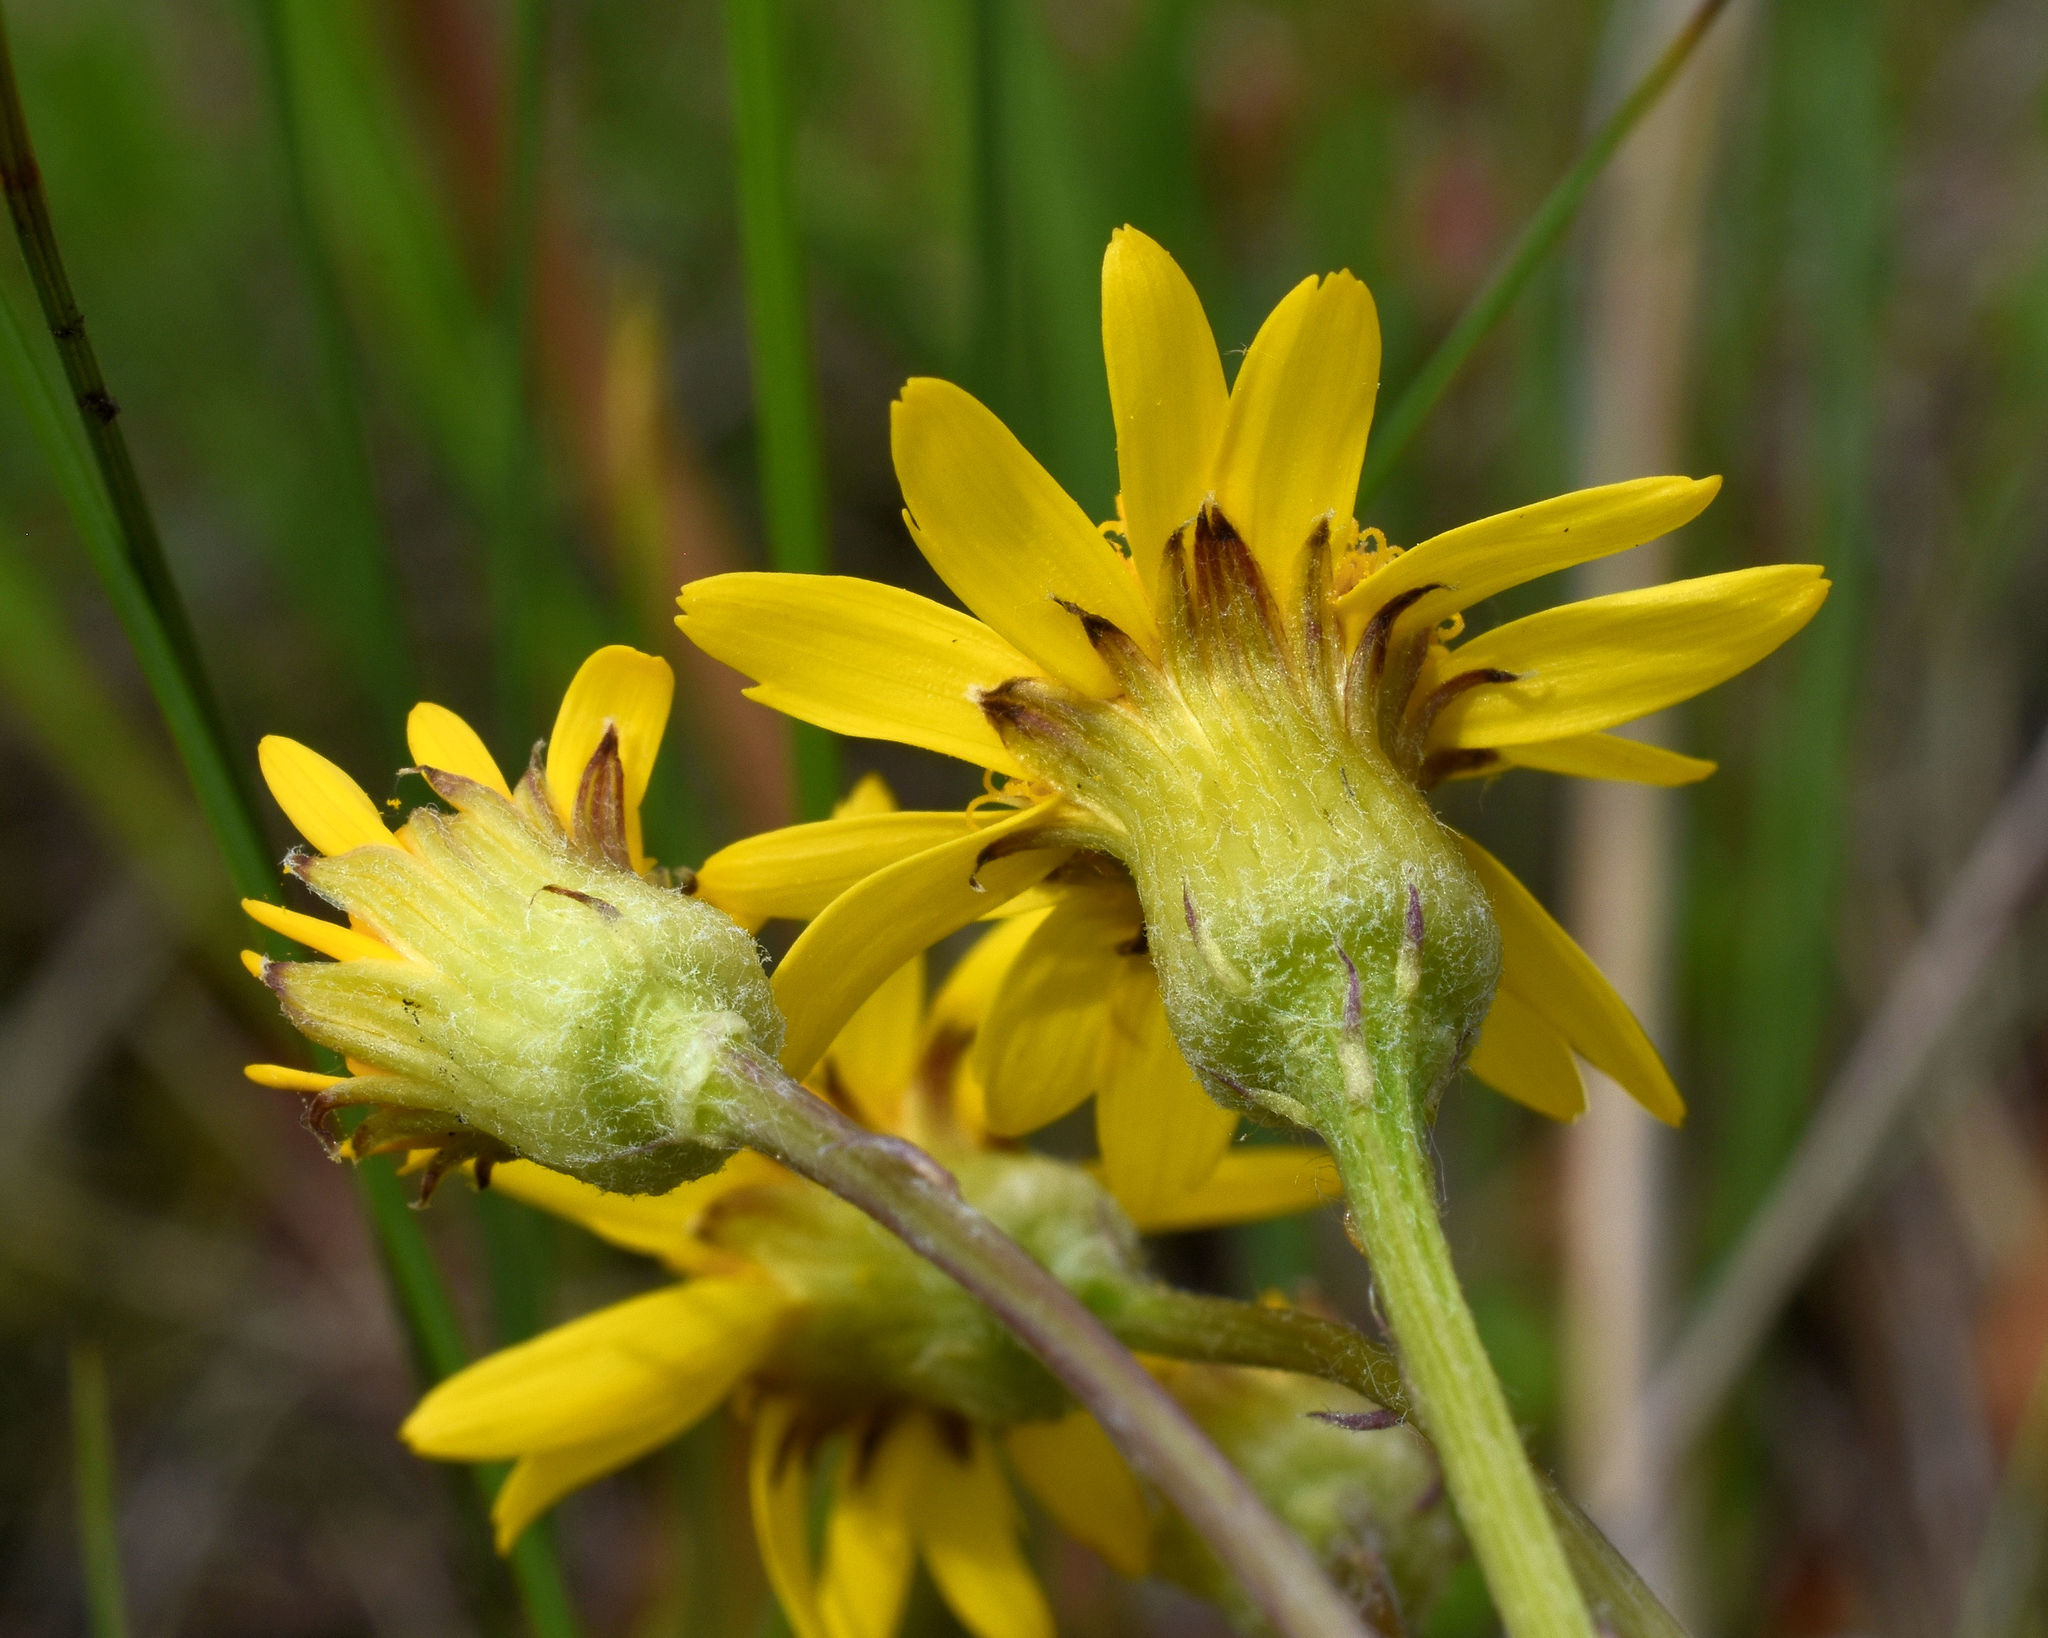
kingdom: Plantae
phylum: Tracheophyta
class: Magnoliopsida
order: Asterales
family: Asteraceae
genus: Packera
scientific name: Packera aurea
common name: Golden groundsel
